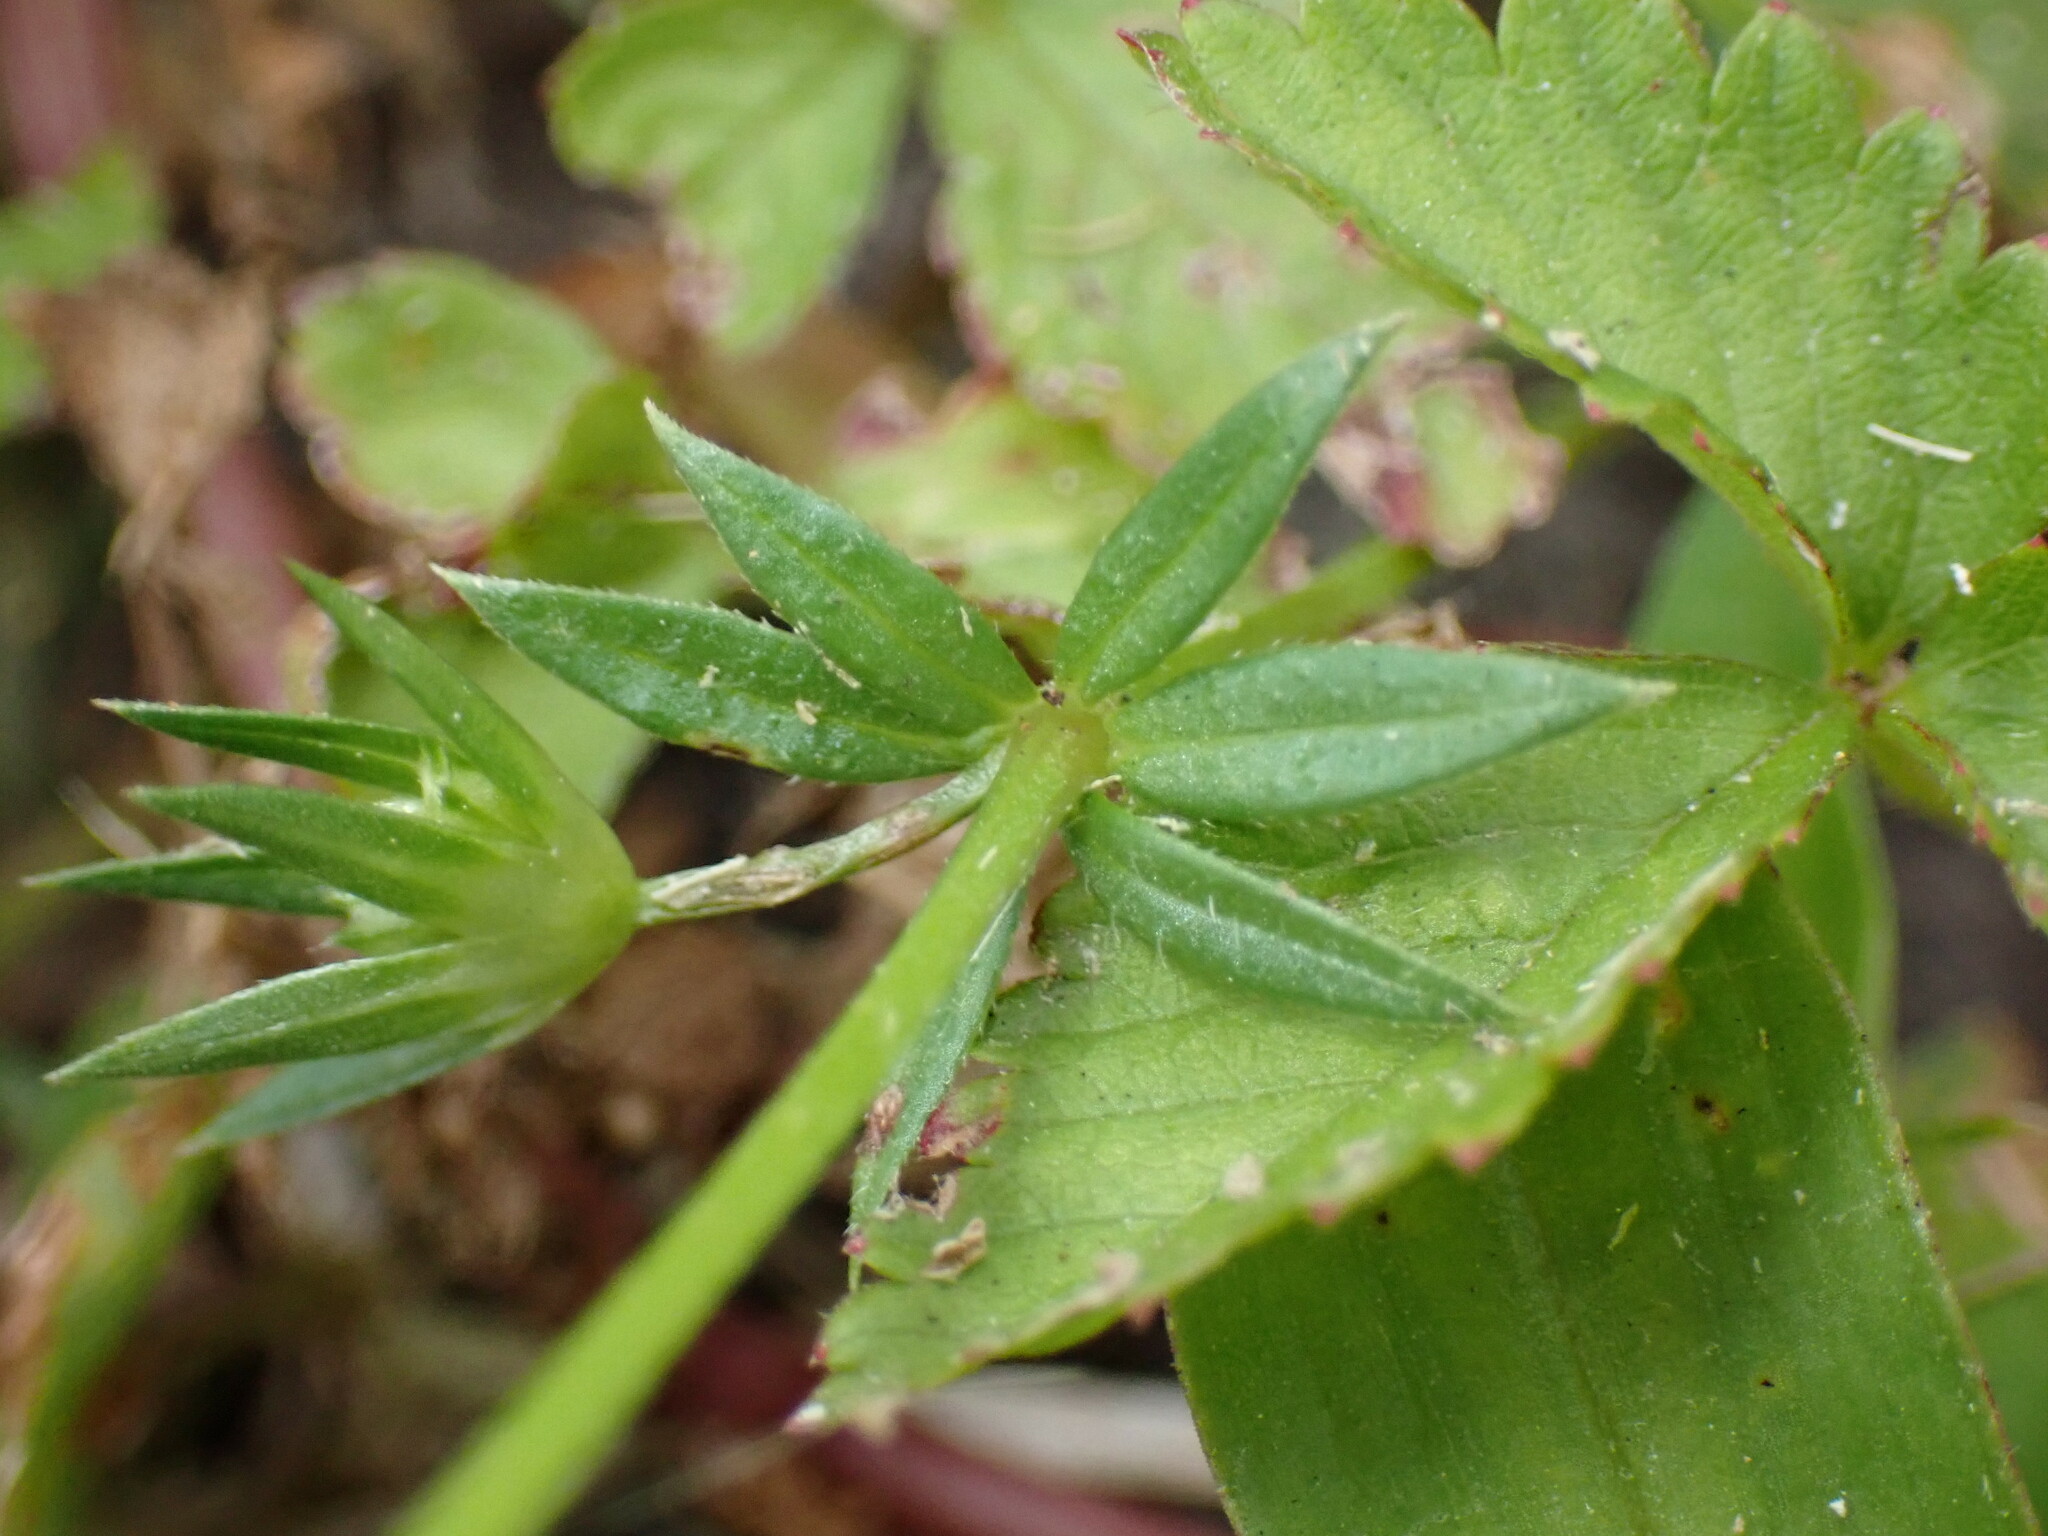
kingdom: Plantae
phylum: Tracheophyta
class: Magnoliopsida
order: Gentianales
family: Rubiaceae
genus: Sherardia
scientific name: Sherardia arvensis
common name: Field madder
